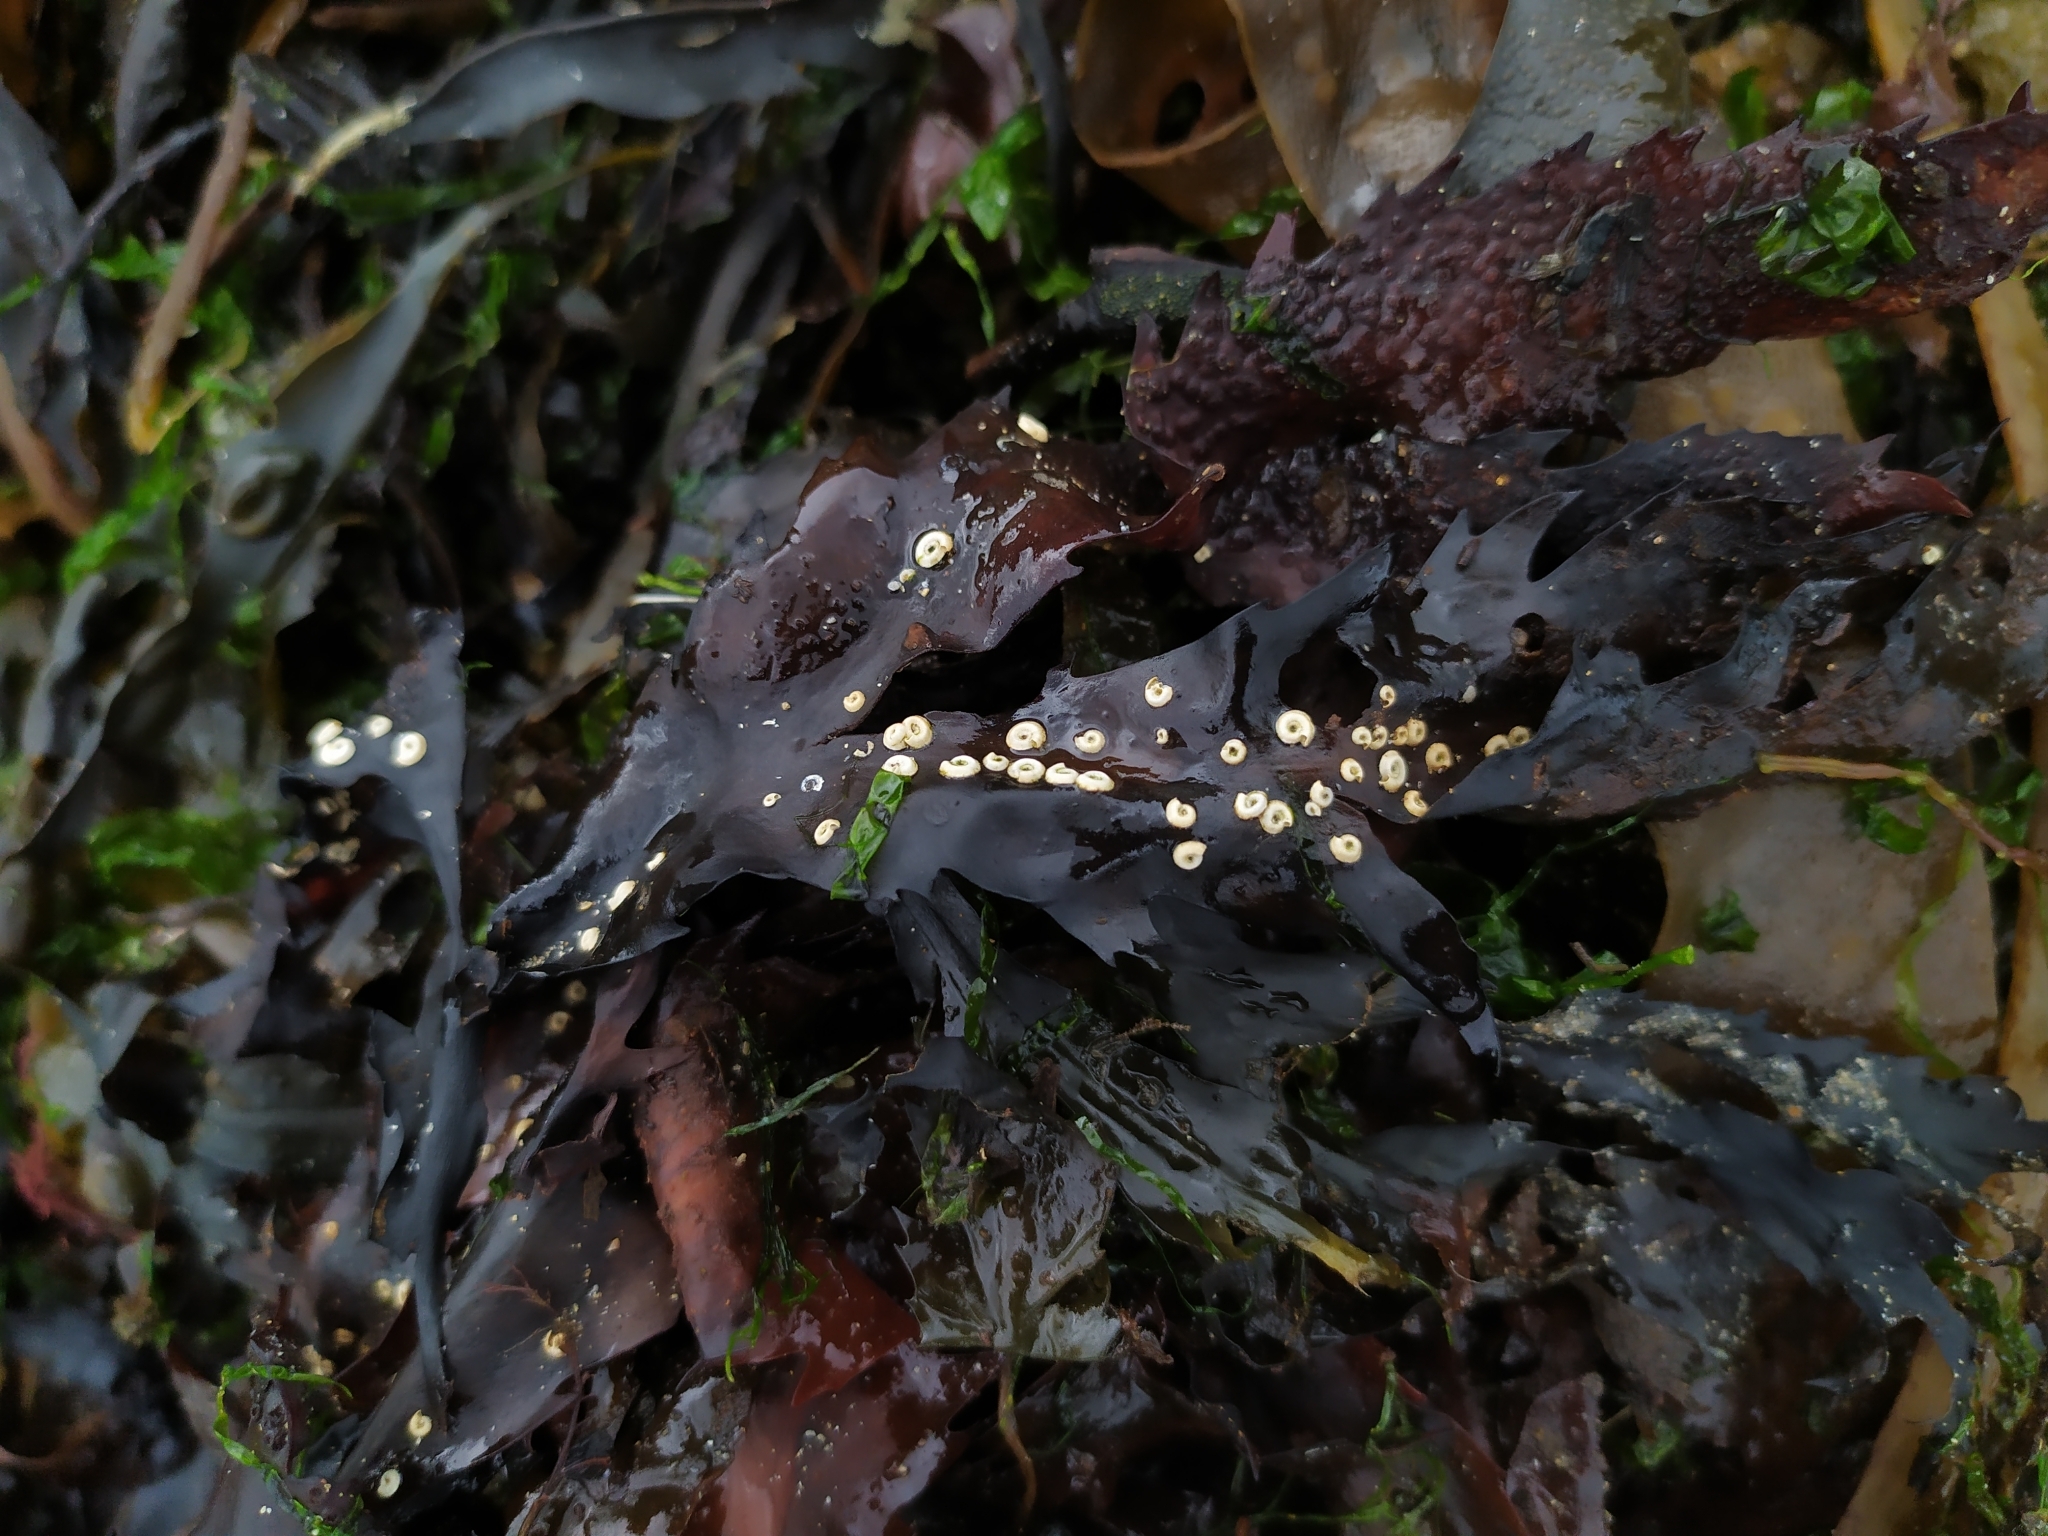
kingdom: Animalia
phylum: Annelida
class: Polychaeta
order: Sabellida
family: Serpulidae
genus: Spirorbis
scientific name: Spirorbis spirorbis
